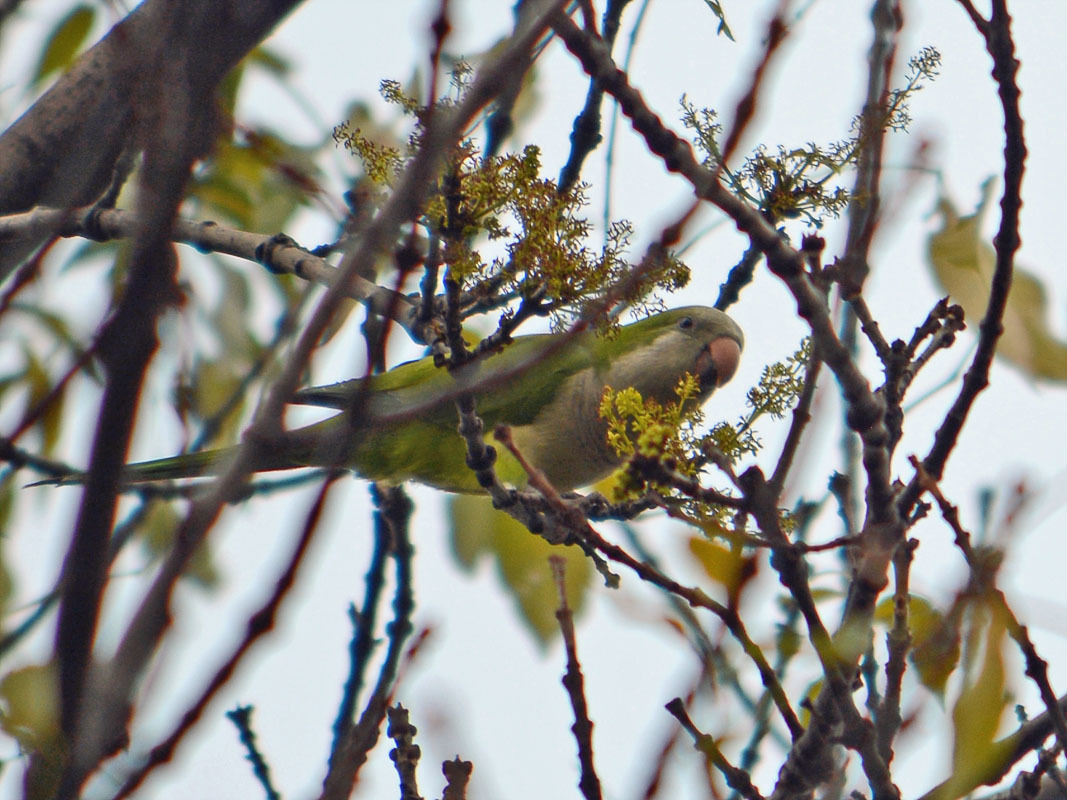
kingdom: Animalia
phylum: Chordata
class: Aves
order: Psittaciformes
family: Psittacidae
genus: Myiopsitta
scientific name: Myiopsitta monachus
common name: Monk parakeet
